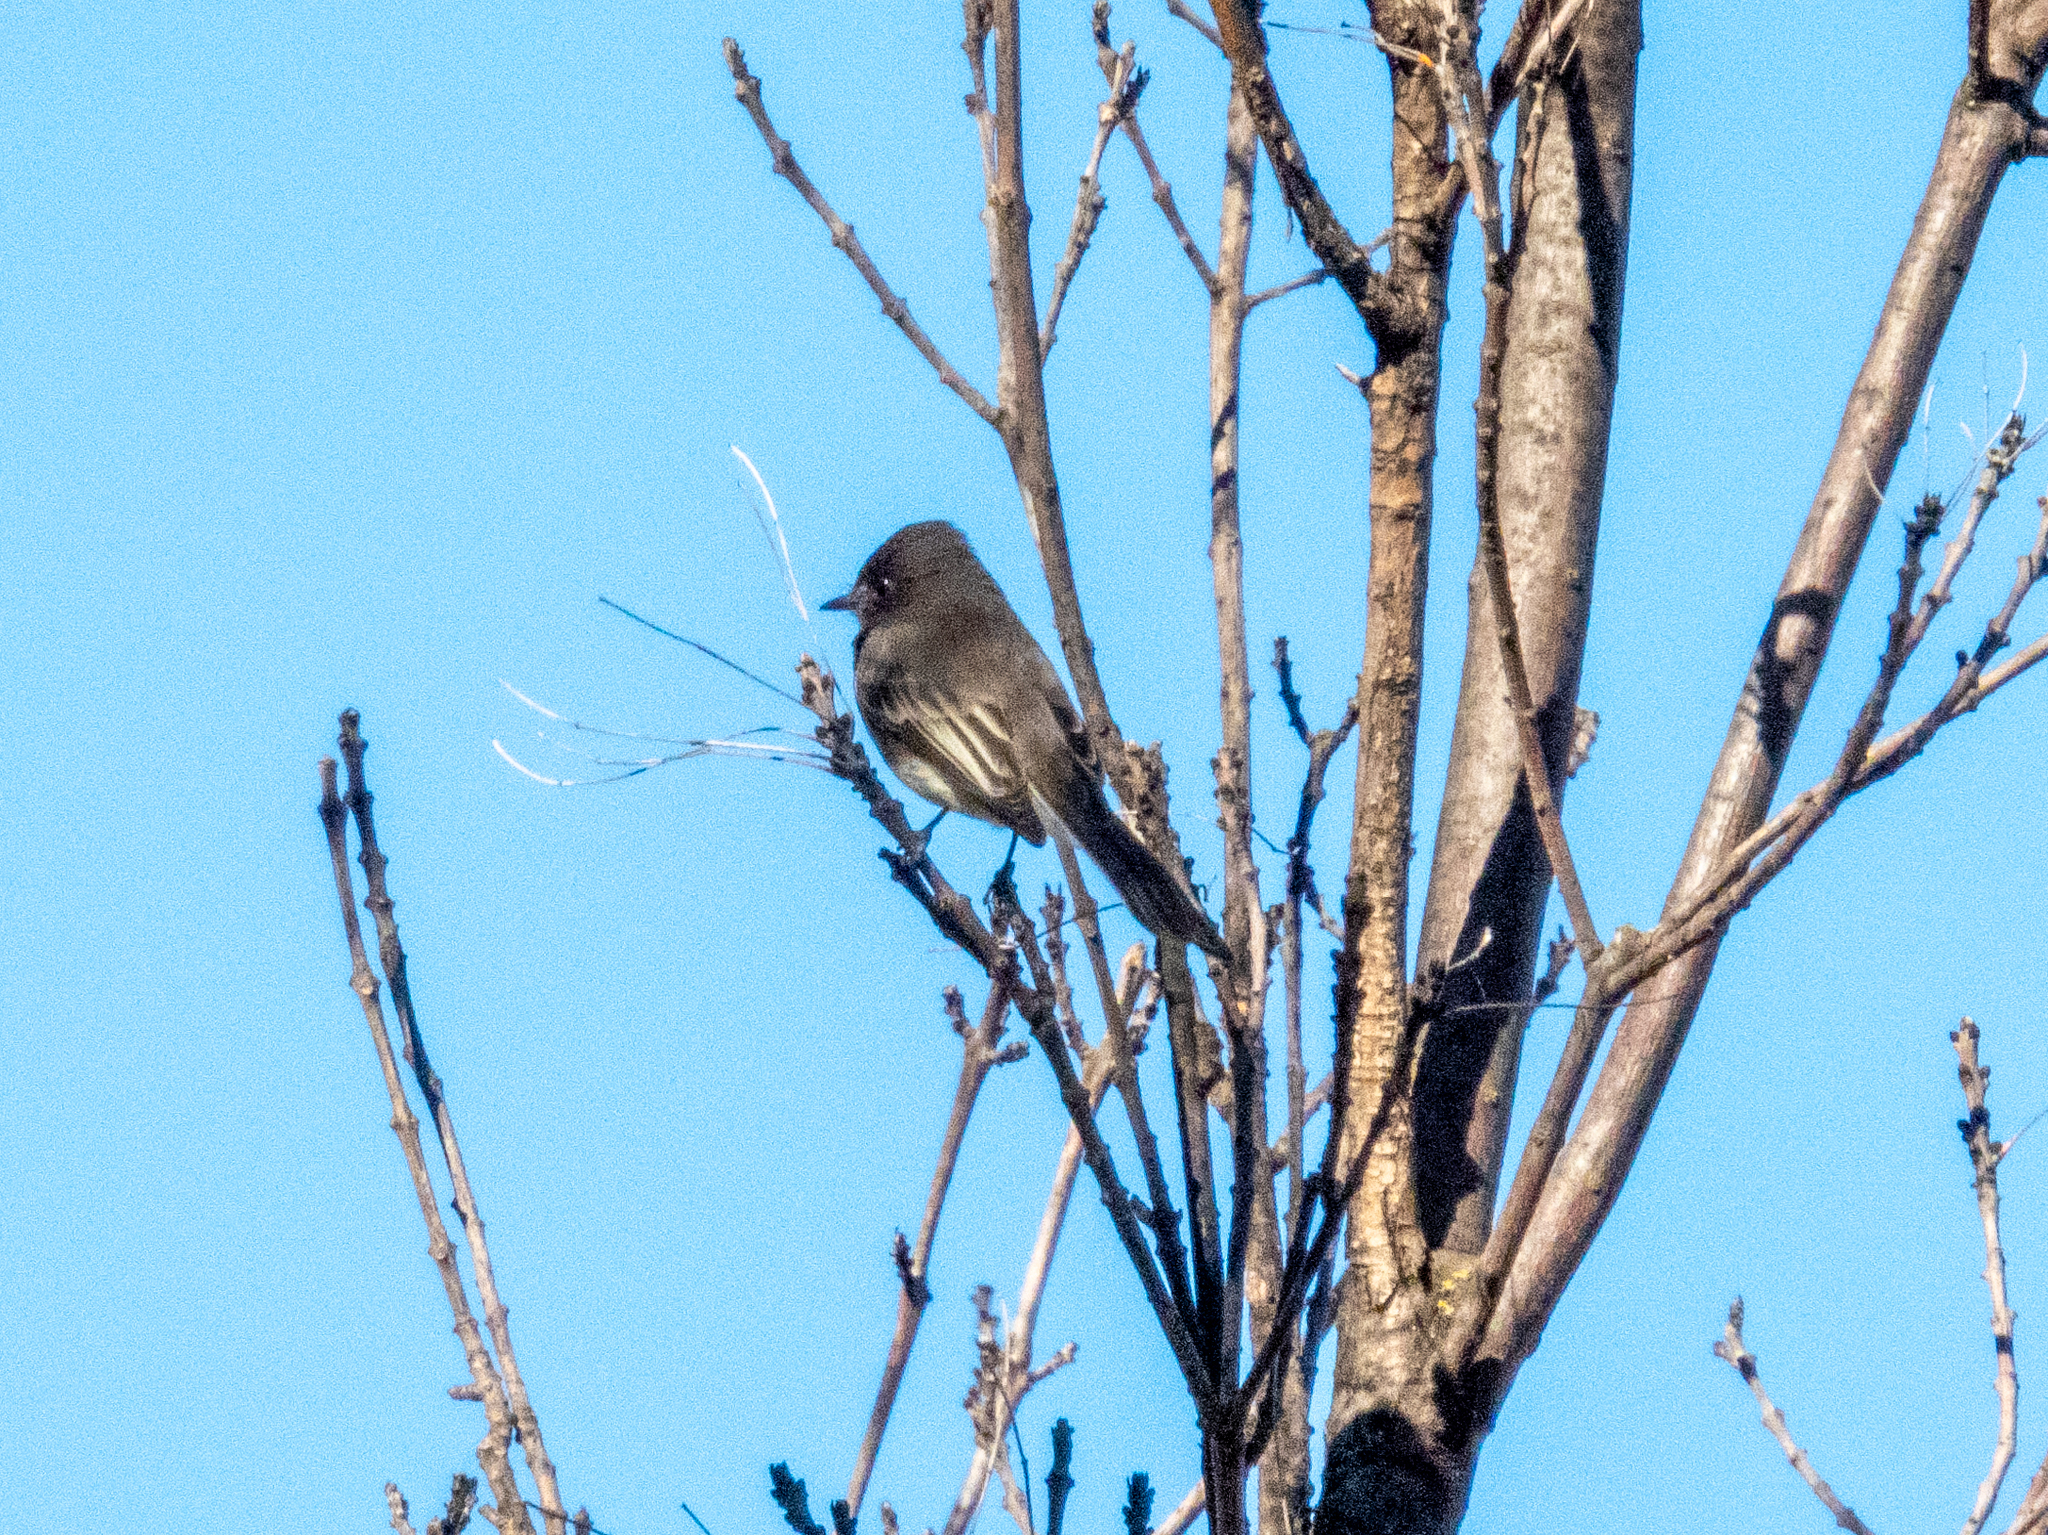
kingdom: Animalia
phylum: Chordata
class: Aves
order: Passeriformes
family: Tyrannidae
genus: Sayornis
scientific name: Sayornis nigricans
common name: Black phoebe
